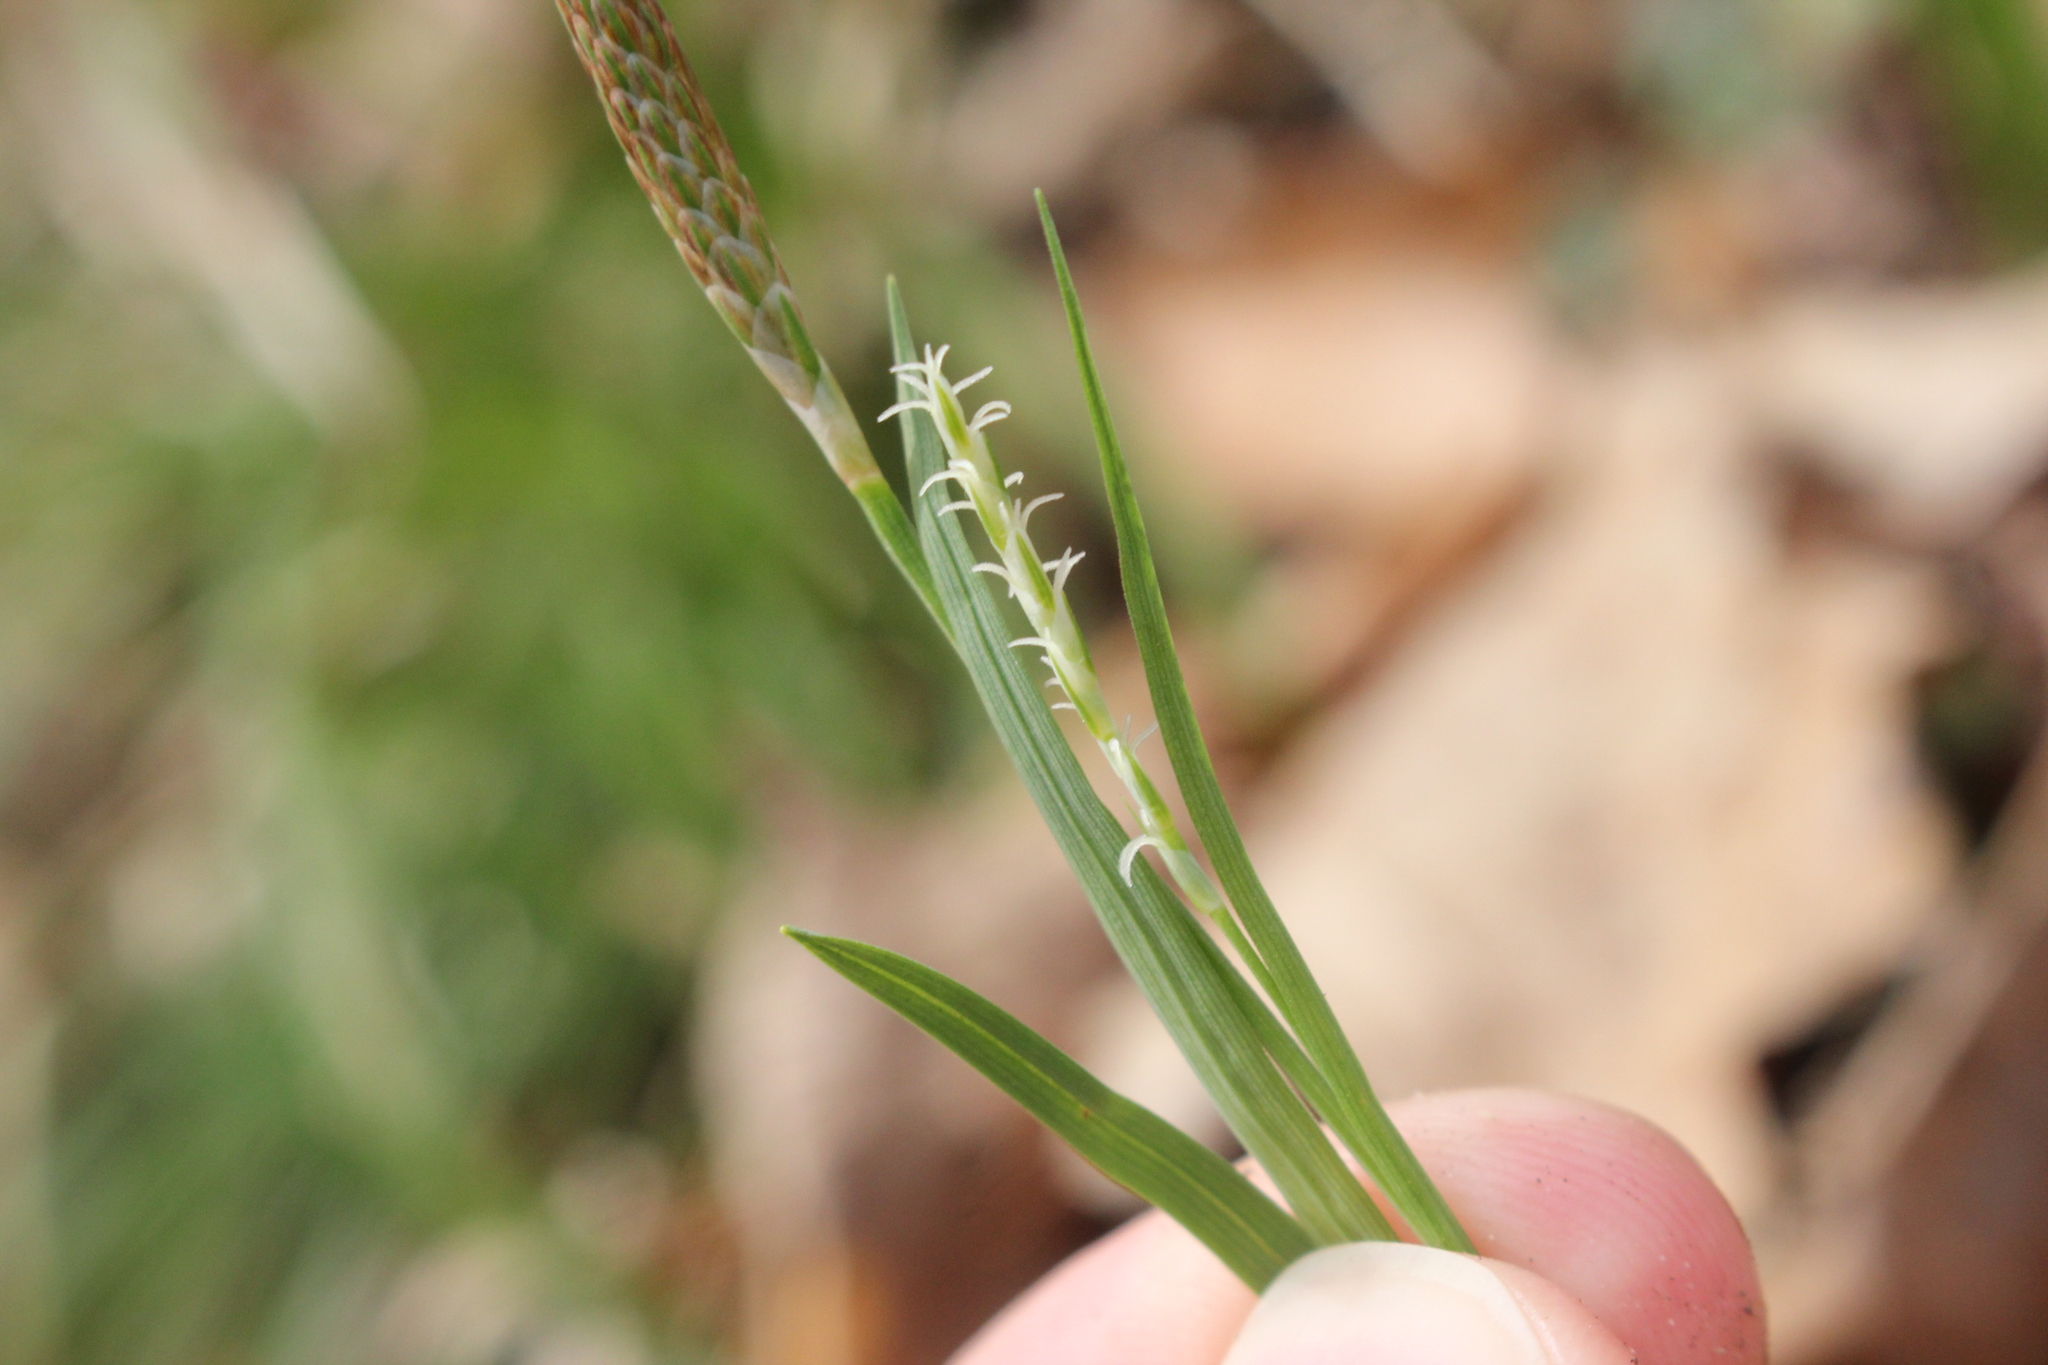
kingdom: Plantae
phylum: Tracheophyta
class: Liliopsida
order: Poales
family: Cyperaceae
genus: Carex
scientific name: Carex woodii
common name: Wood's sedge
